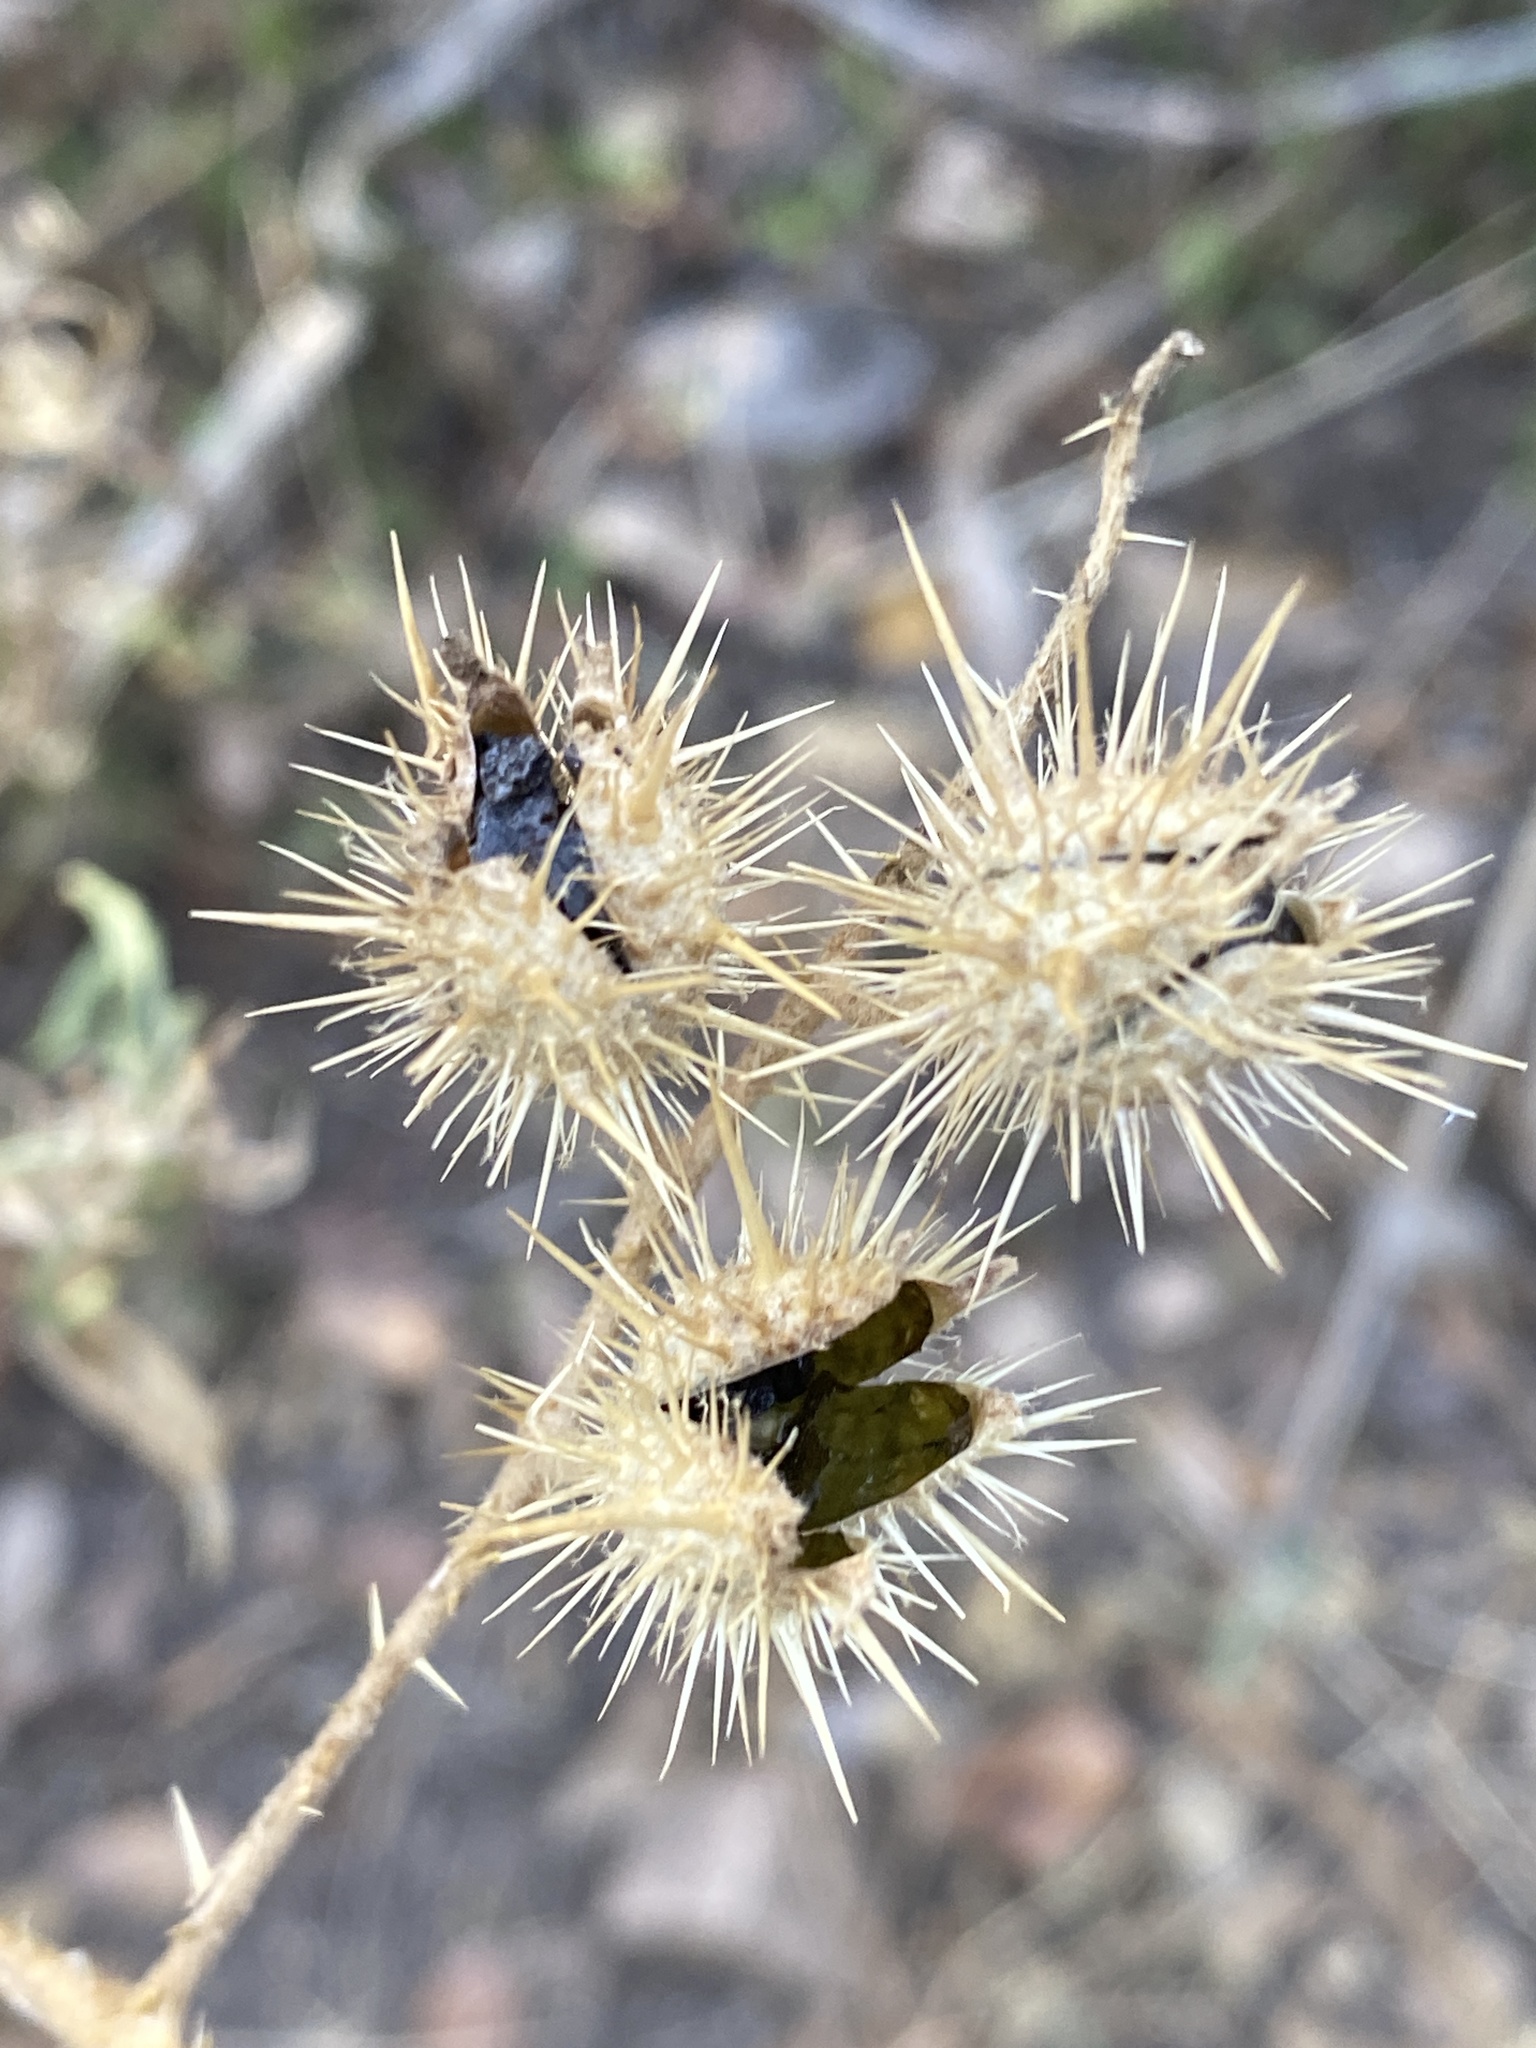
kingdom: Plantae
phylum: Tracheophyta
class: Magnoliopsida
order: Solanales
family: Solanaceae
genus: Solanum
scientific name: Solanum angustifolium
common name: Buffalobur nightshade
